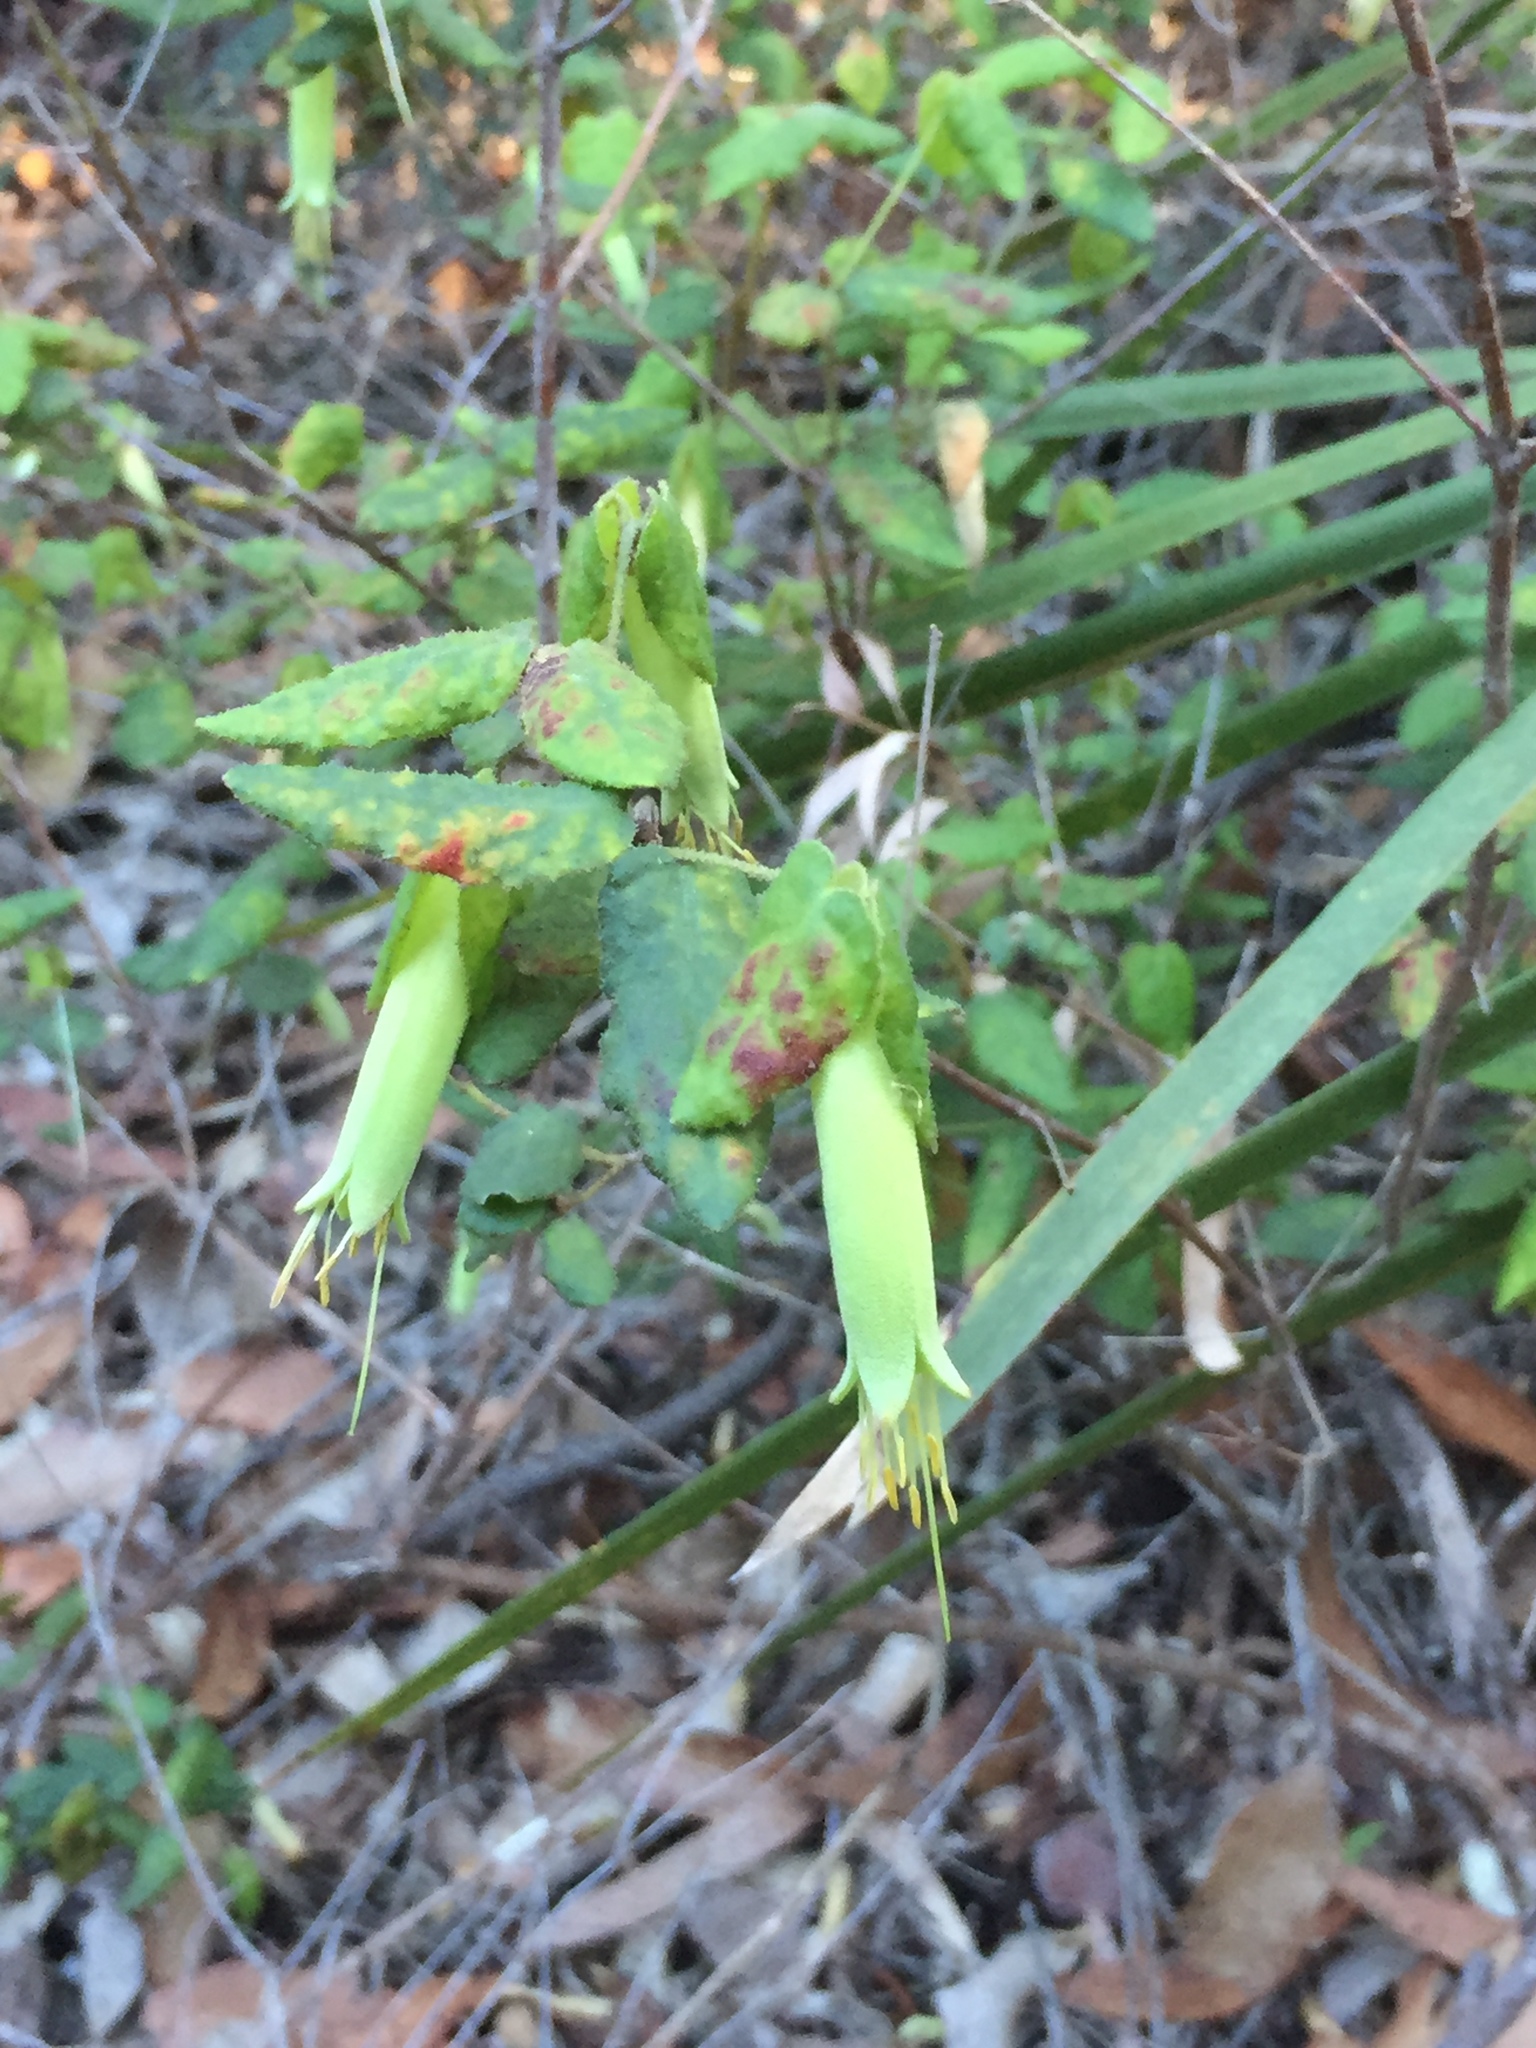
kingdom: Plantae
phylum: Tracheophyta
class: Magnoliopsida
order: Sapindales
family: Rutaceae
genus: Correa
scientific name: Correa reflexa
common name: Common correa
